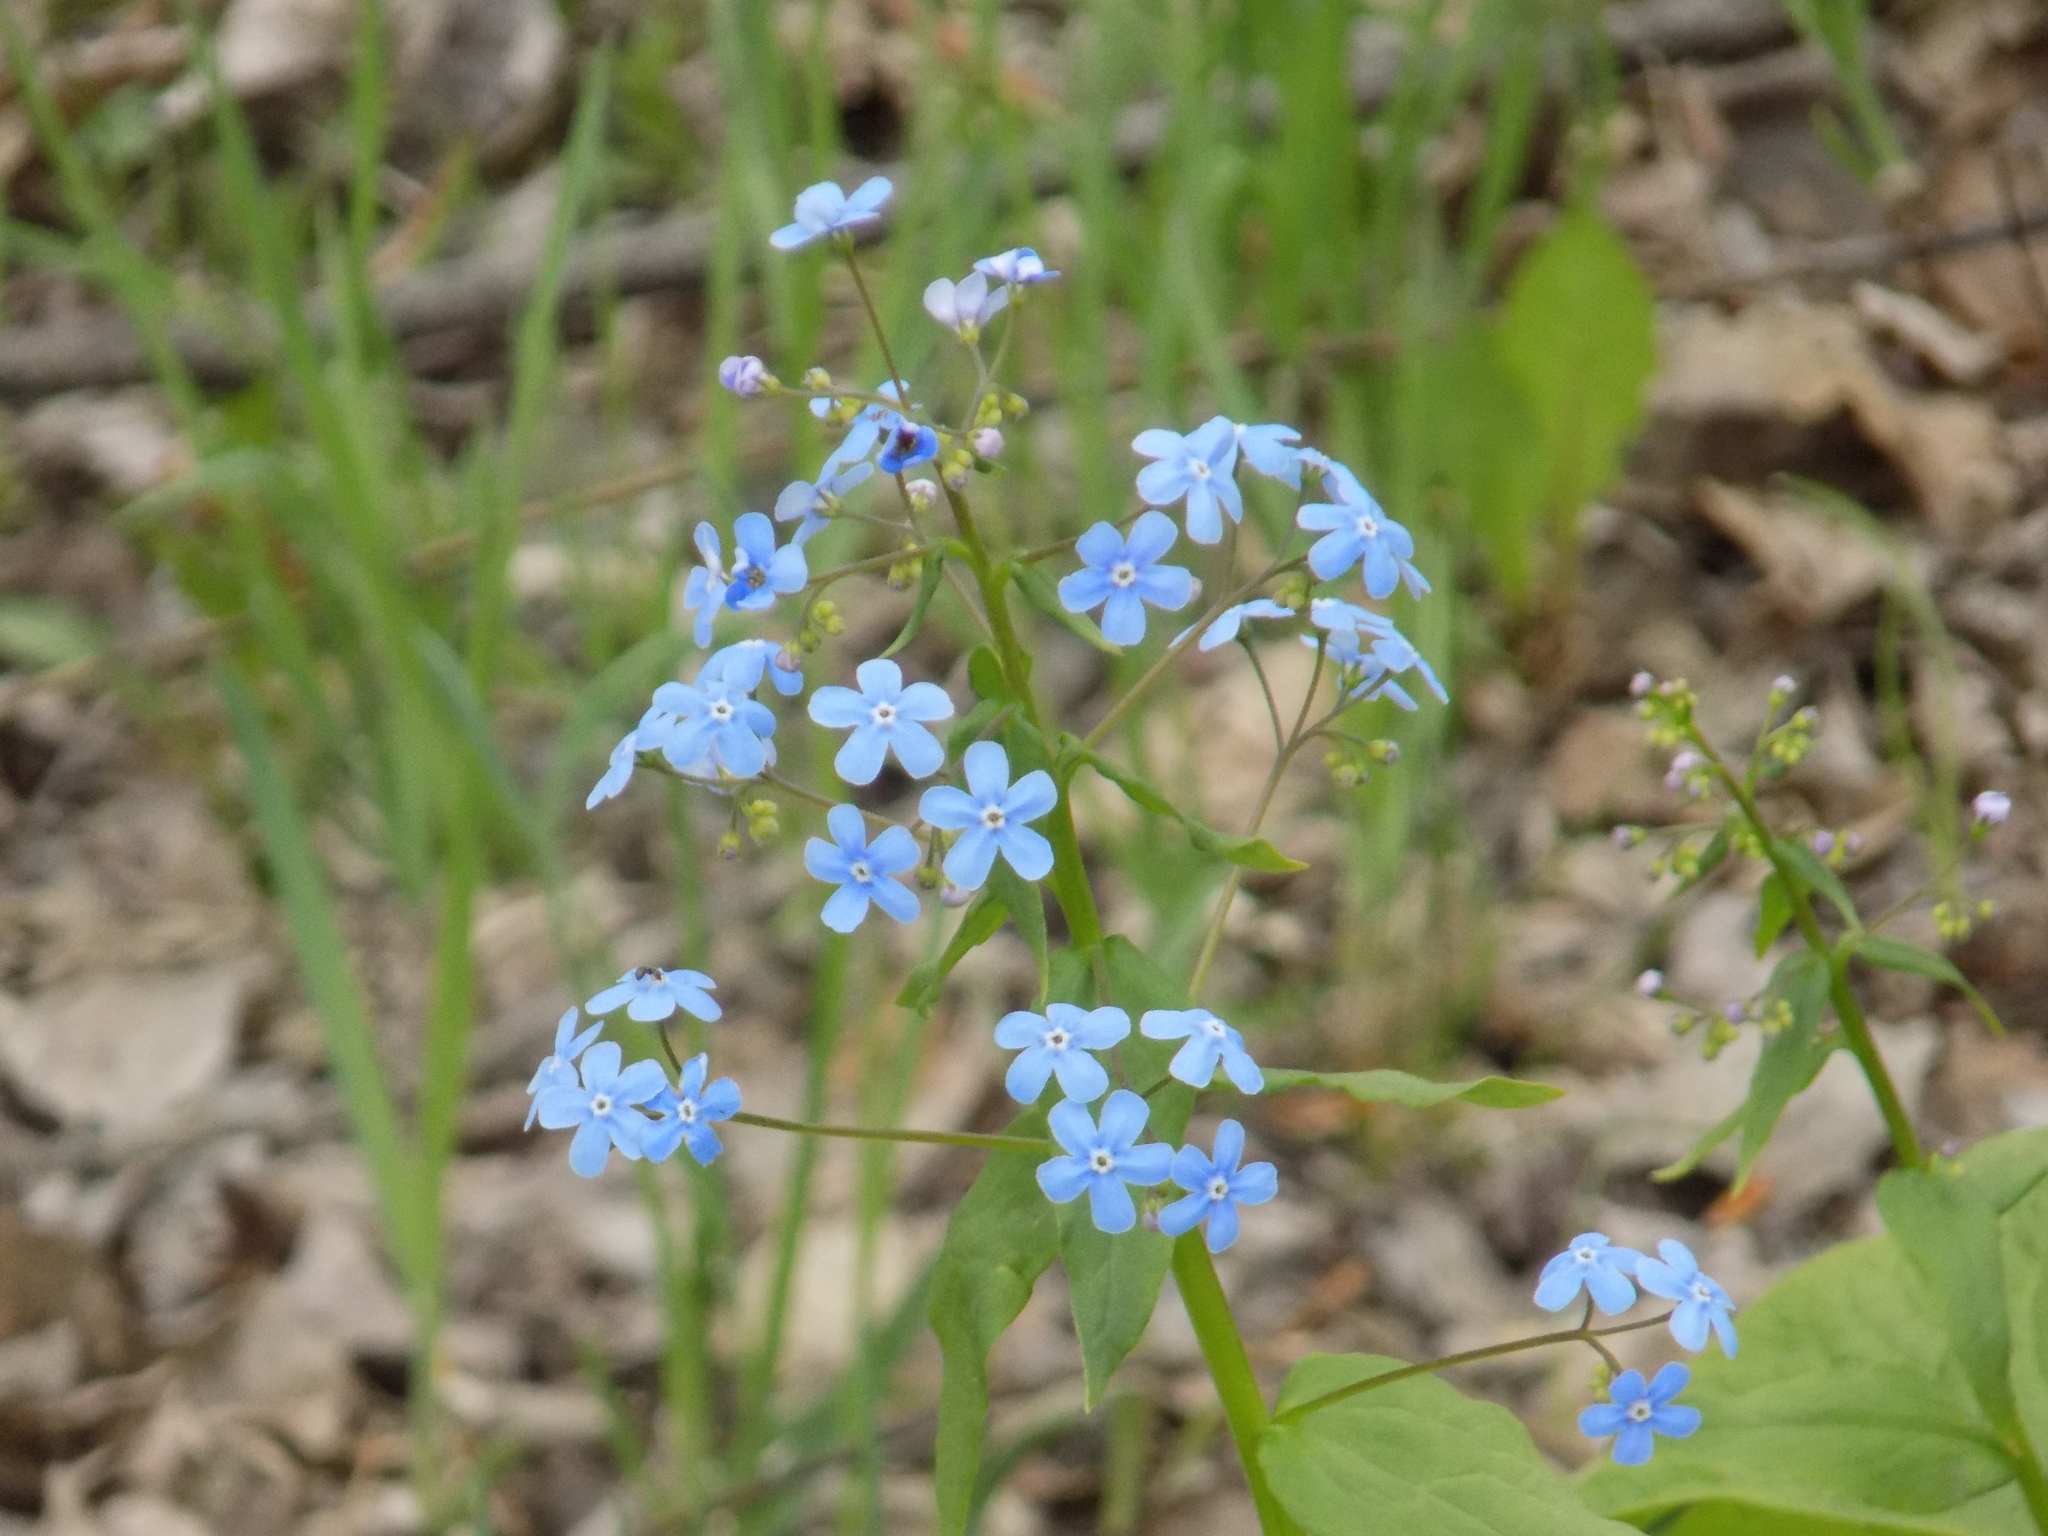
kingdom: Plantae
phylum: Tracheophyta
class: Magnoliopsida
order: Boraginales
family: Boraginaceae
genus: Brunnera
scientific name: Brunnera sibirica
